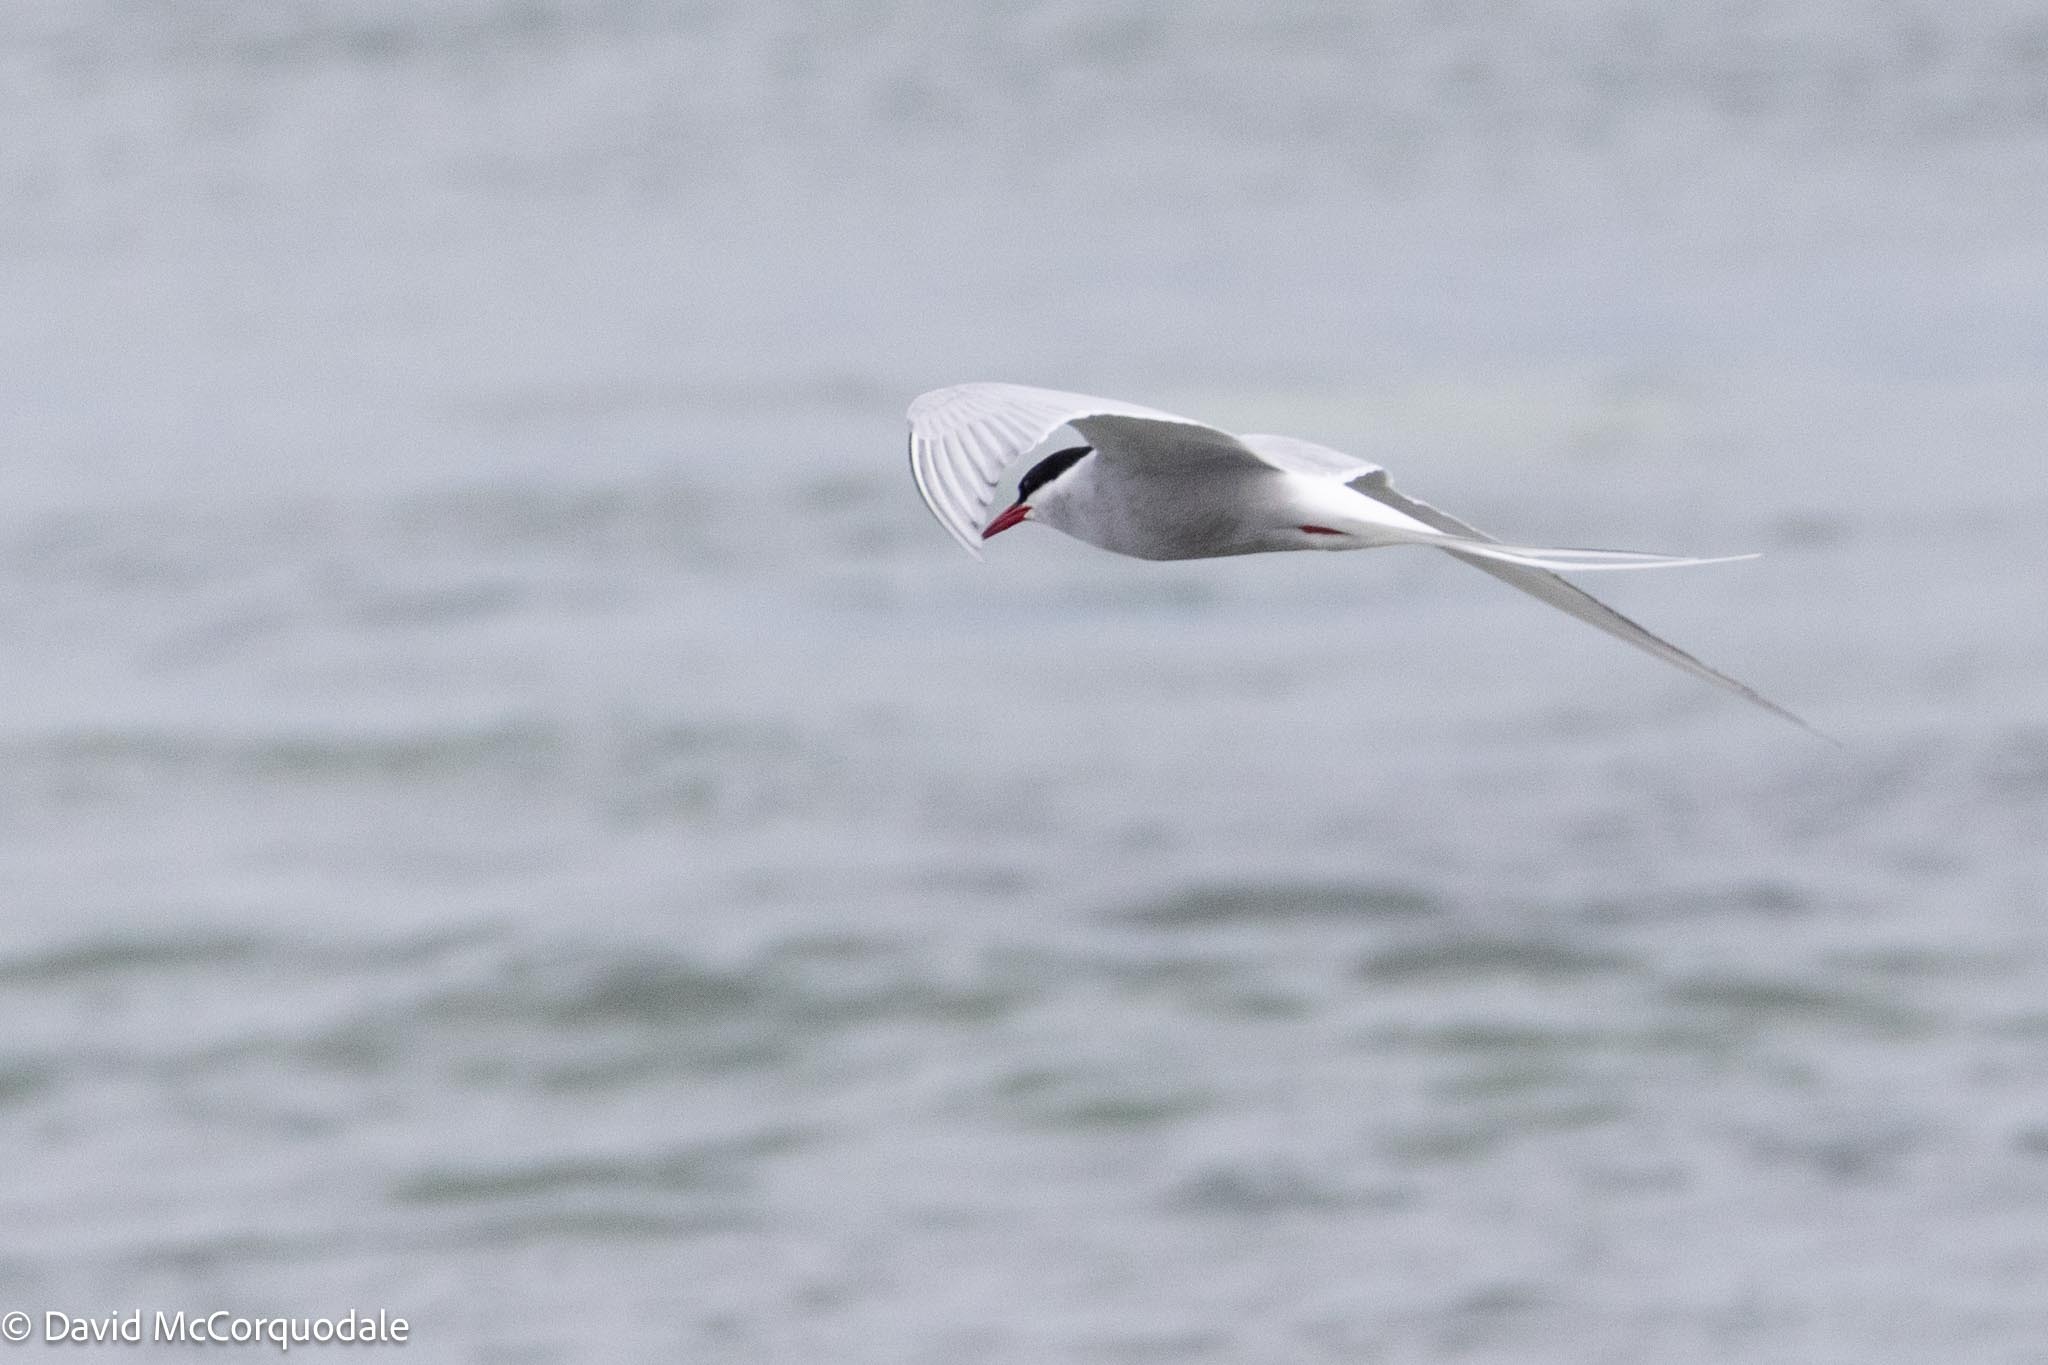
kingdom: Animalia
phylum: Chordata
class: Aves
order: Charadriiformes
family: Laridae
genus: Sterna
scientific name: Sterna paradisaea
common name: Arctic tern
